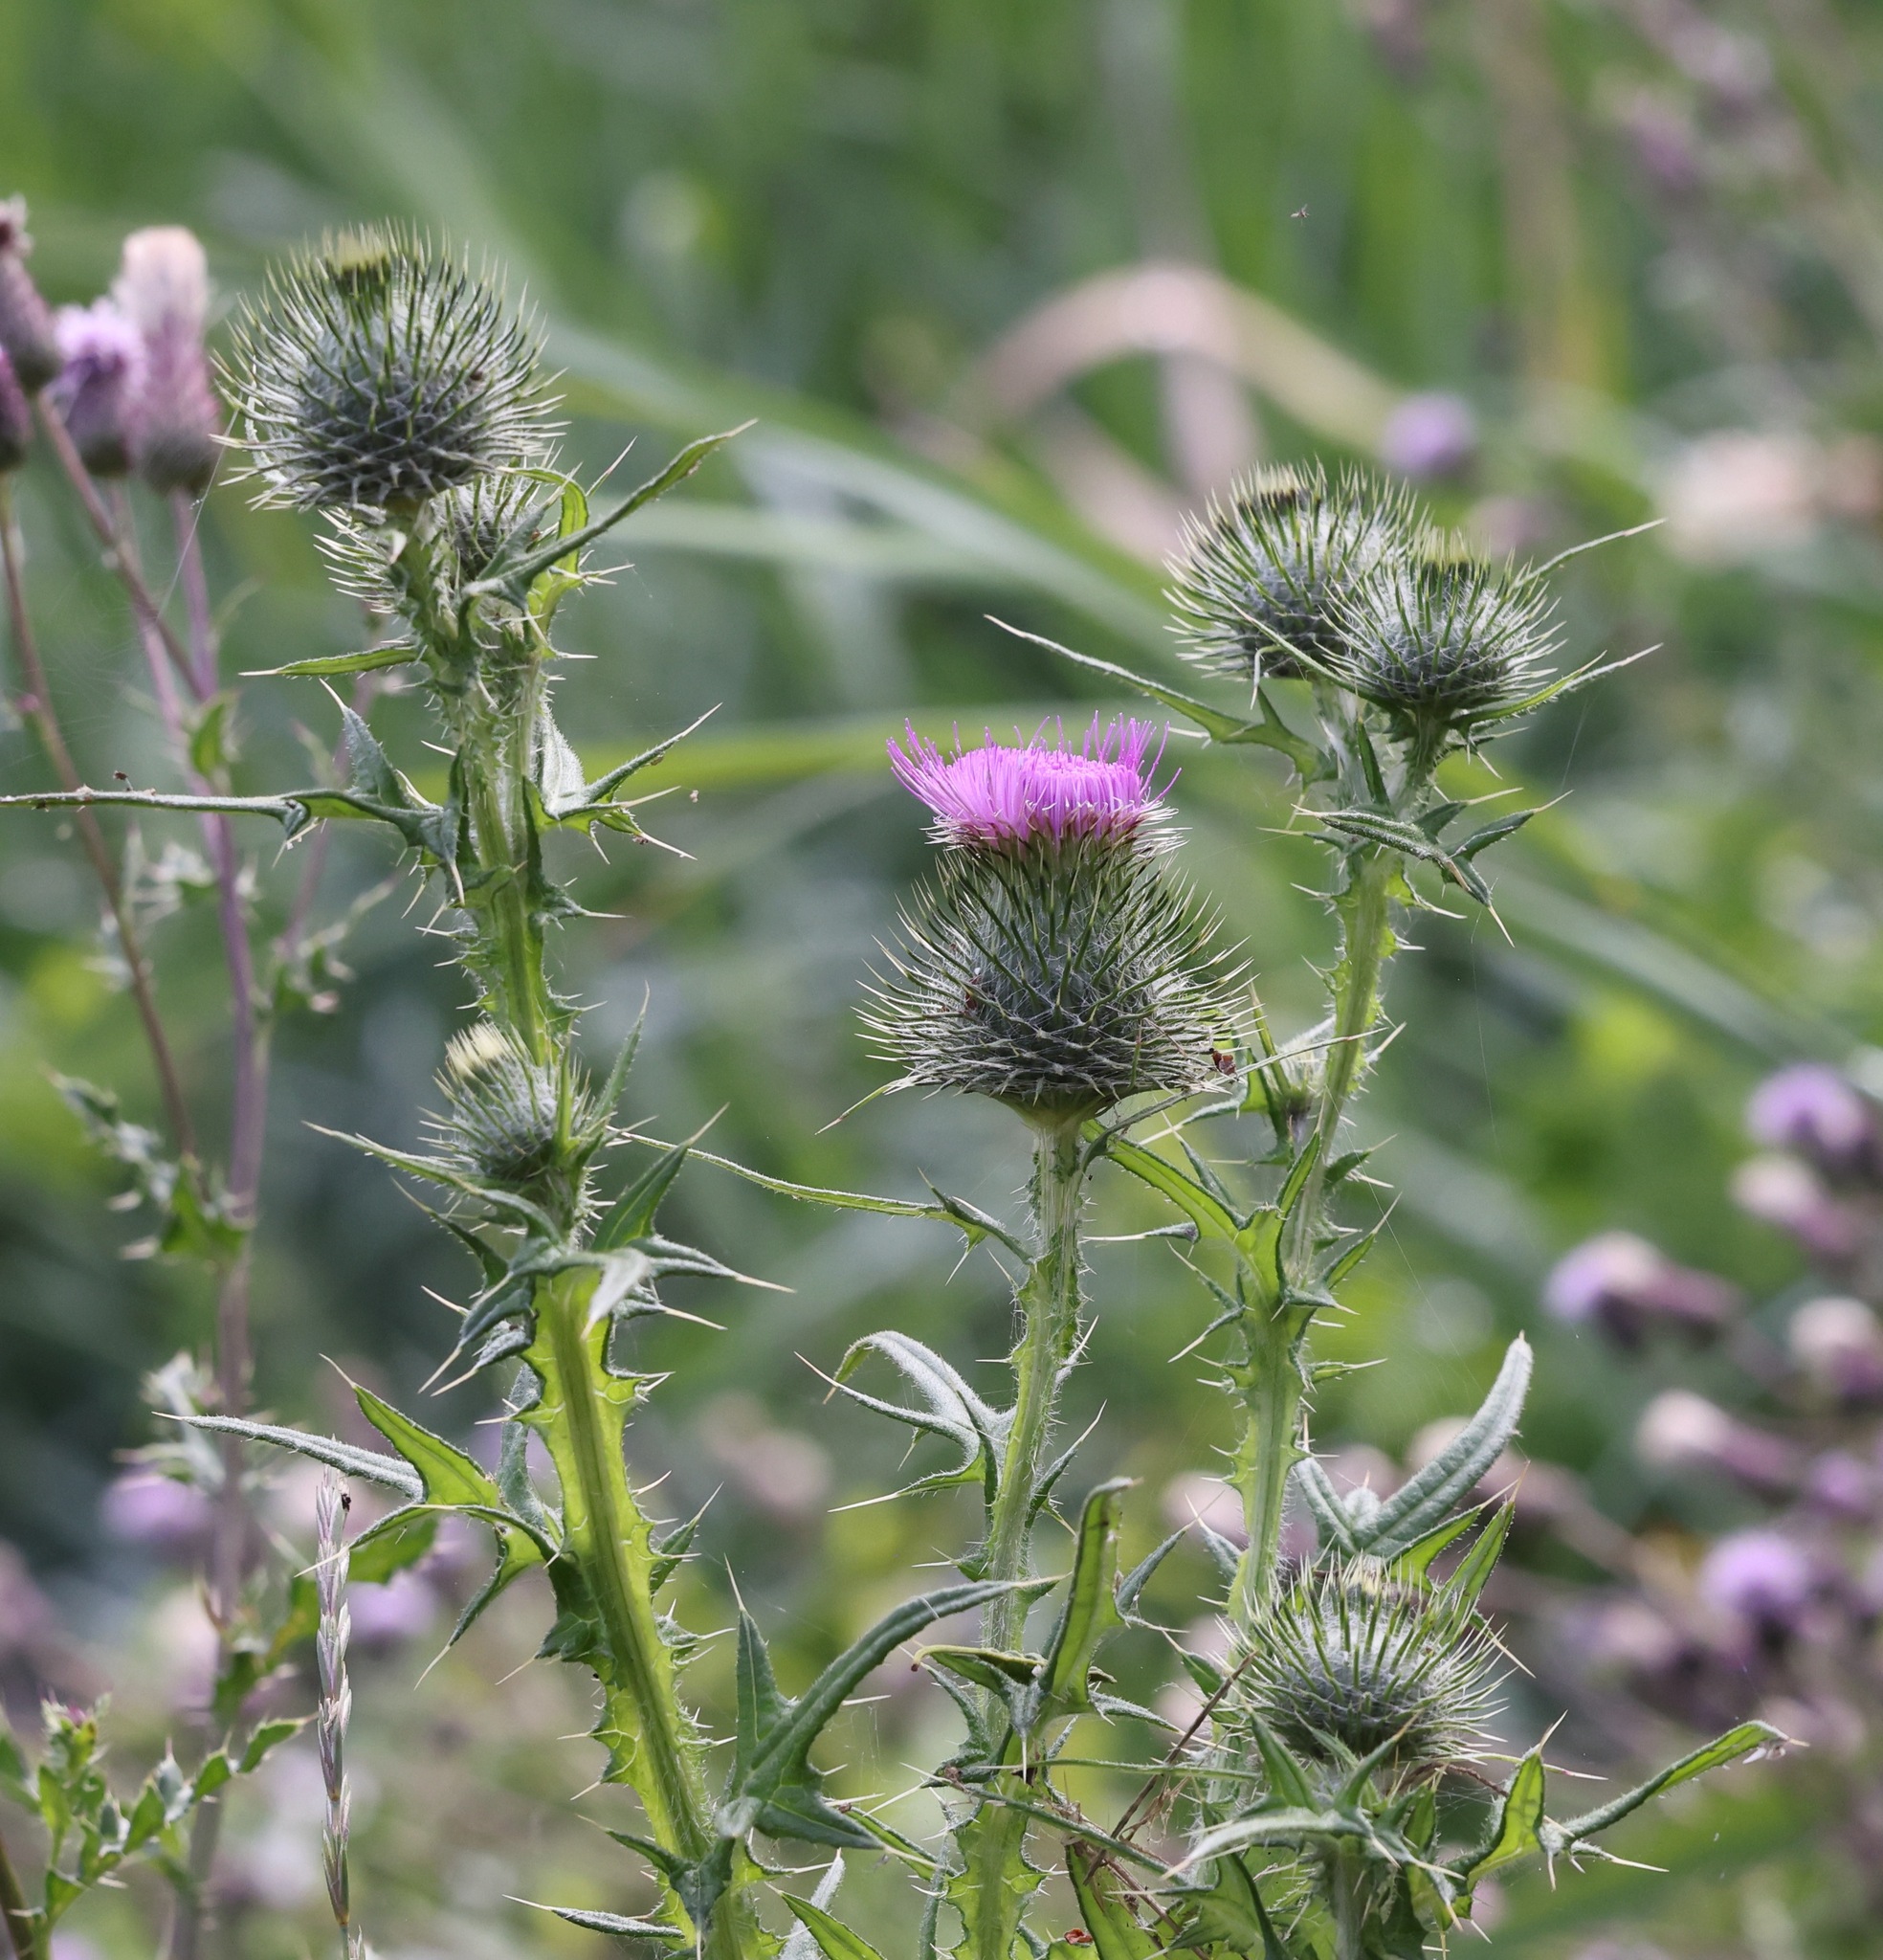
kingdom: Plantae
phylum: Tracheophyta
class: Magnoliopsida
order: Asterales
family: Asteraceae
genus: Cirsium
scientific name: Cirsium vulgare
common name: Bull thistle
